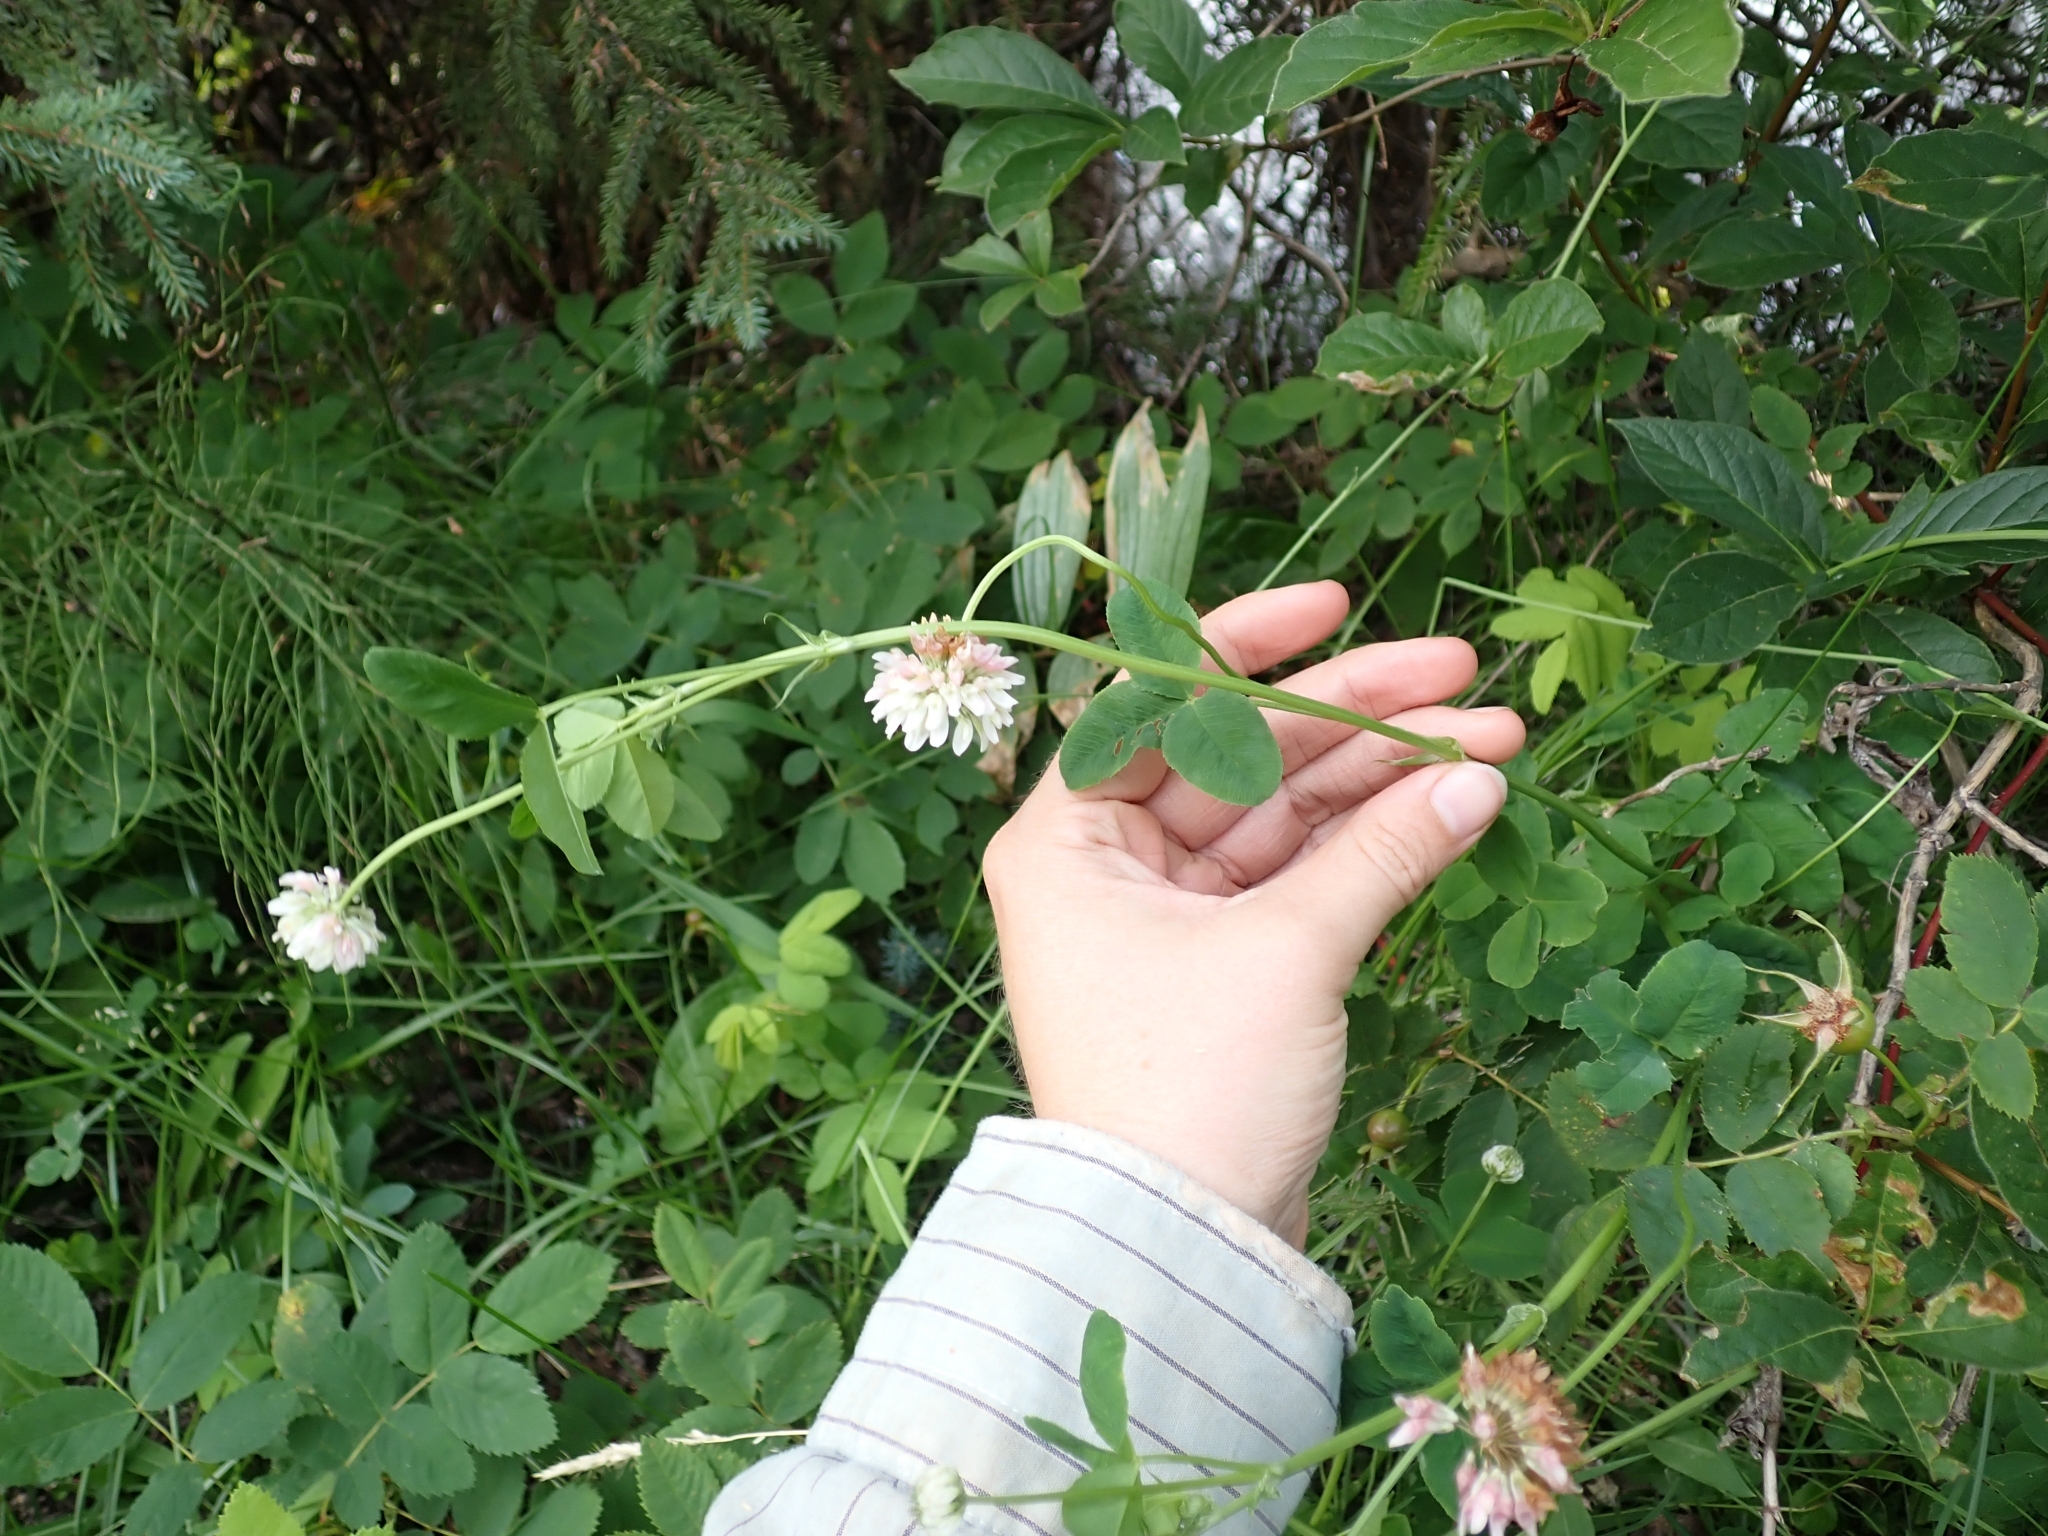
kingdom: Plantae
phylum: Tracheophyta
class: Magnoliopsida
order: Fabales
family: Fabaceae
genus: Trifolium
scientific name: Trifolium hybridum
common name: Alsike clover
